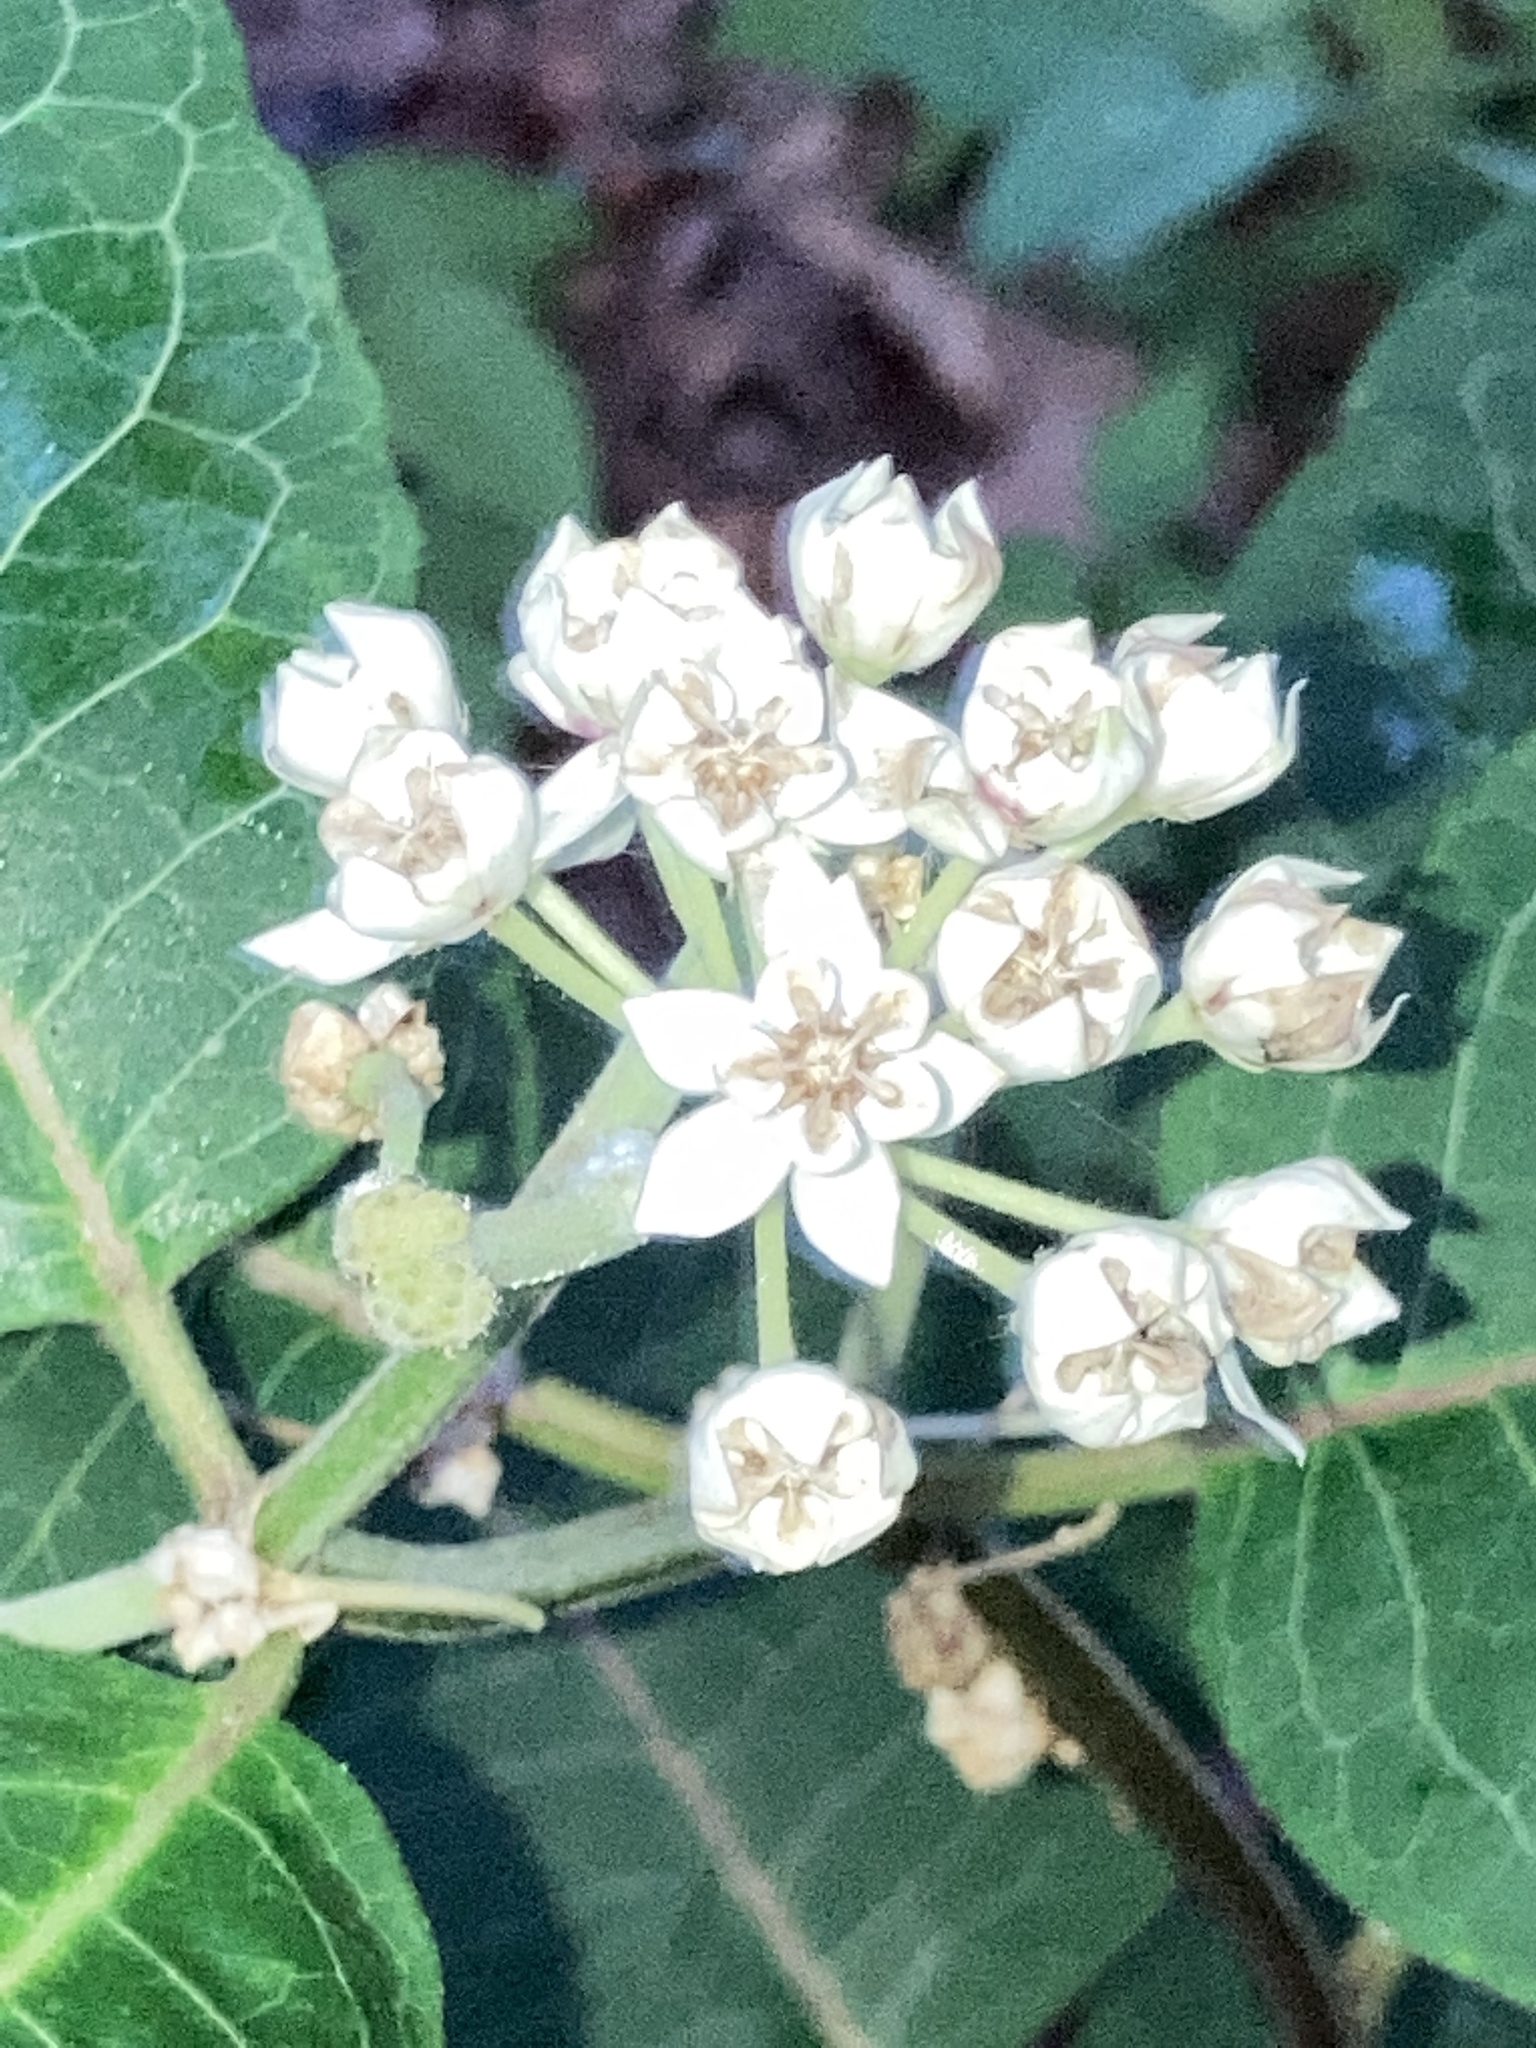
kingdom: Plantae
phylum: Tracheophyta
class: Magnoliopsida
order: Gentianales
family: Apocynaceae
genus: Asclepias
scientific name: Asclepias variegata
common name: Variegated milkweed
